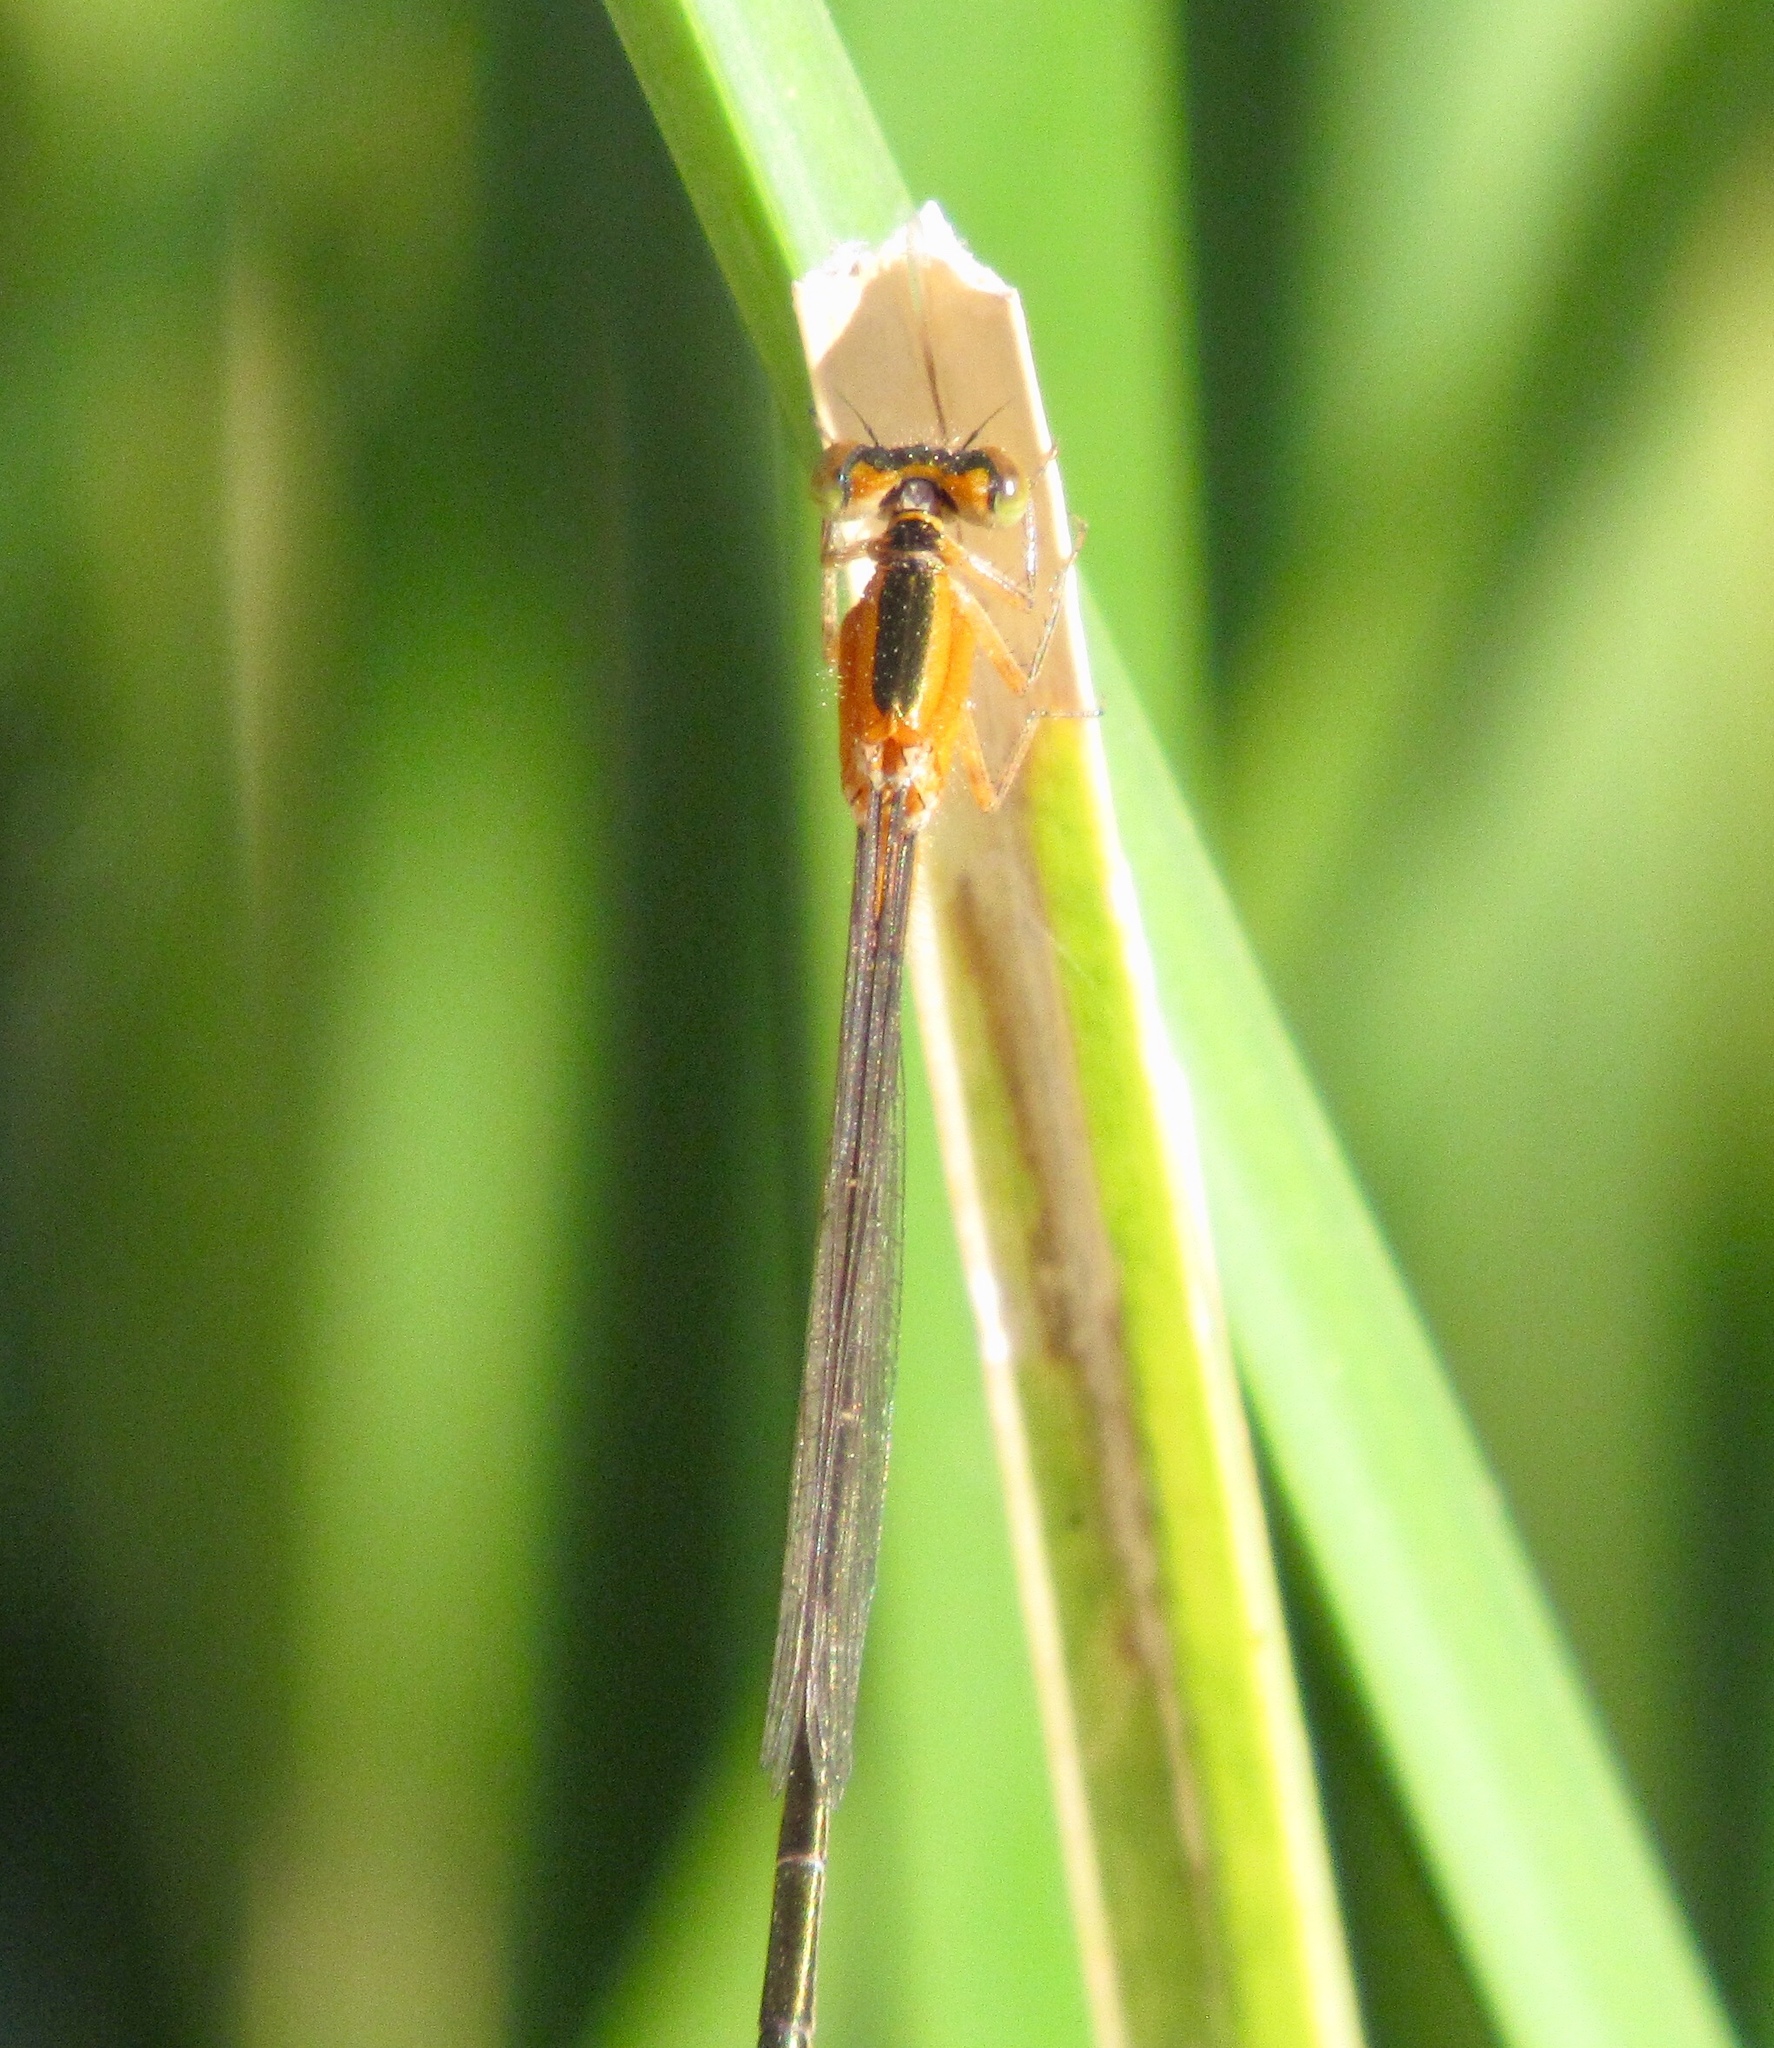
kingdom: Animalia
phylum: Arthropoda
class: Insecta
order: Odonata
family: Coenagrionidae
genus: Ischnura
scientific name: Ischnura ramburii
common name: Rambur's forktail
